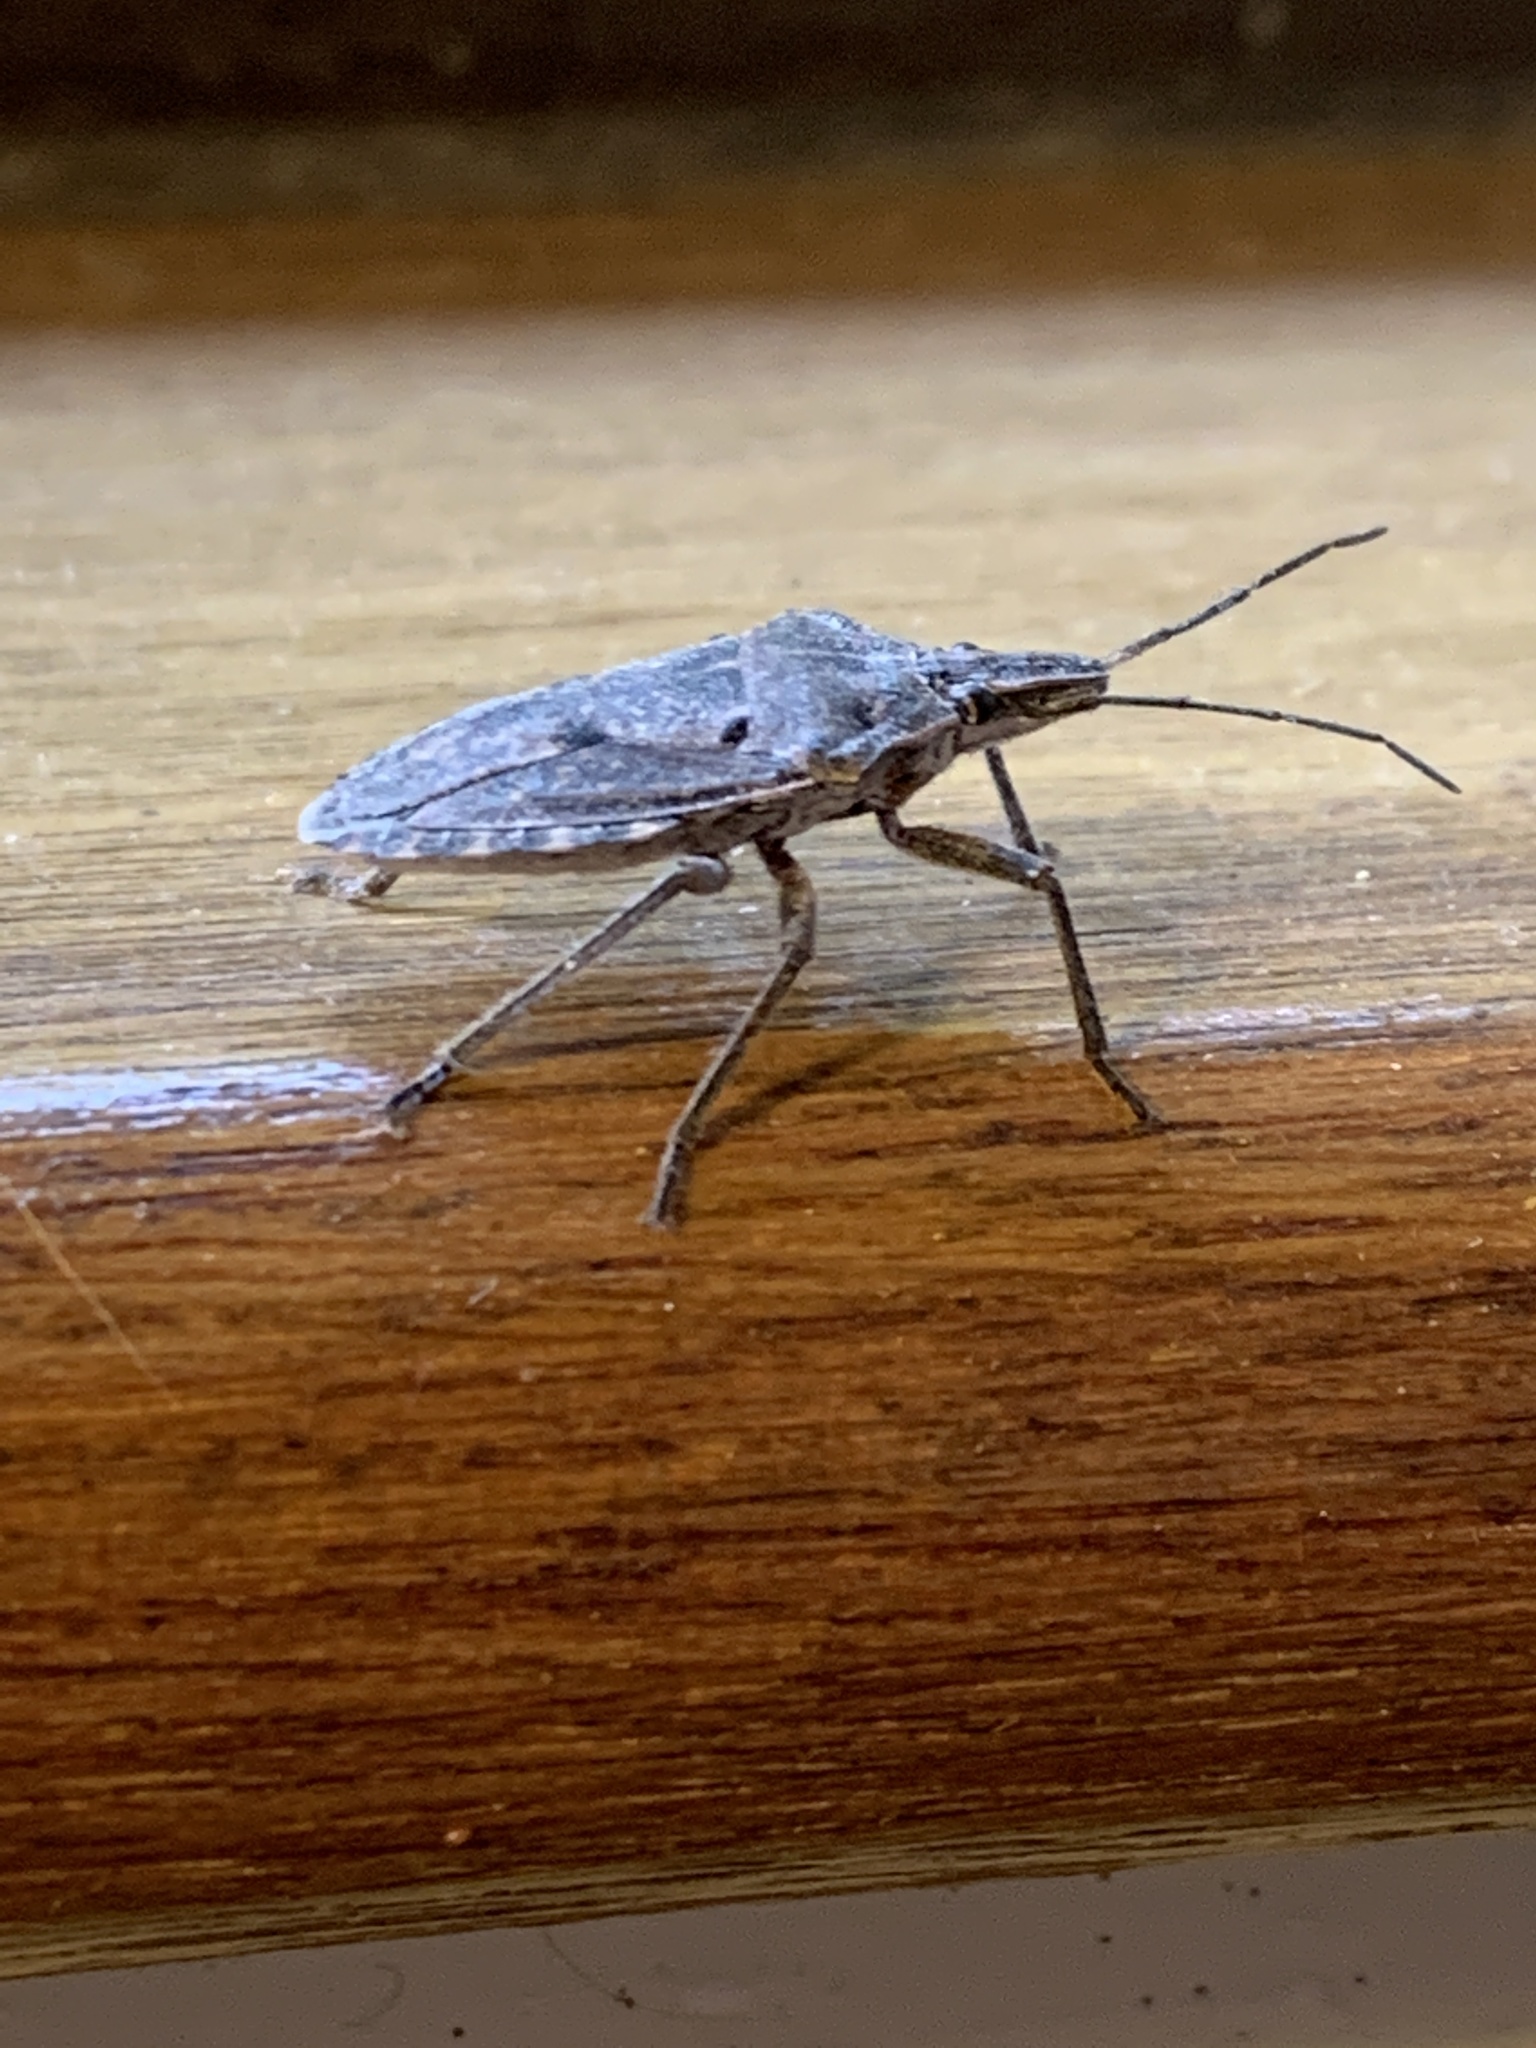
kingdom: Animalia
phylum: Arthropoda
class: Insecta
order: Hemiptera
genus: Peltasticus
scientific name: Peltasticus
